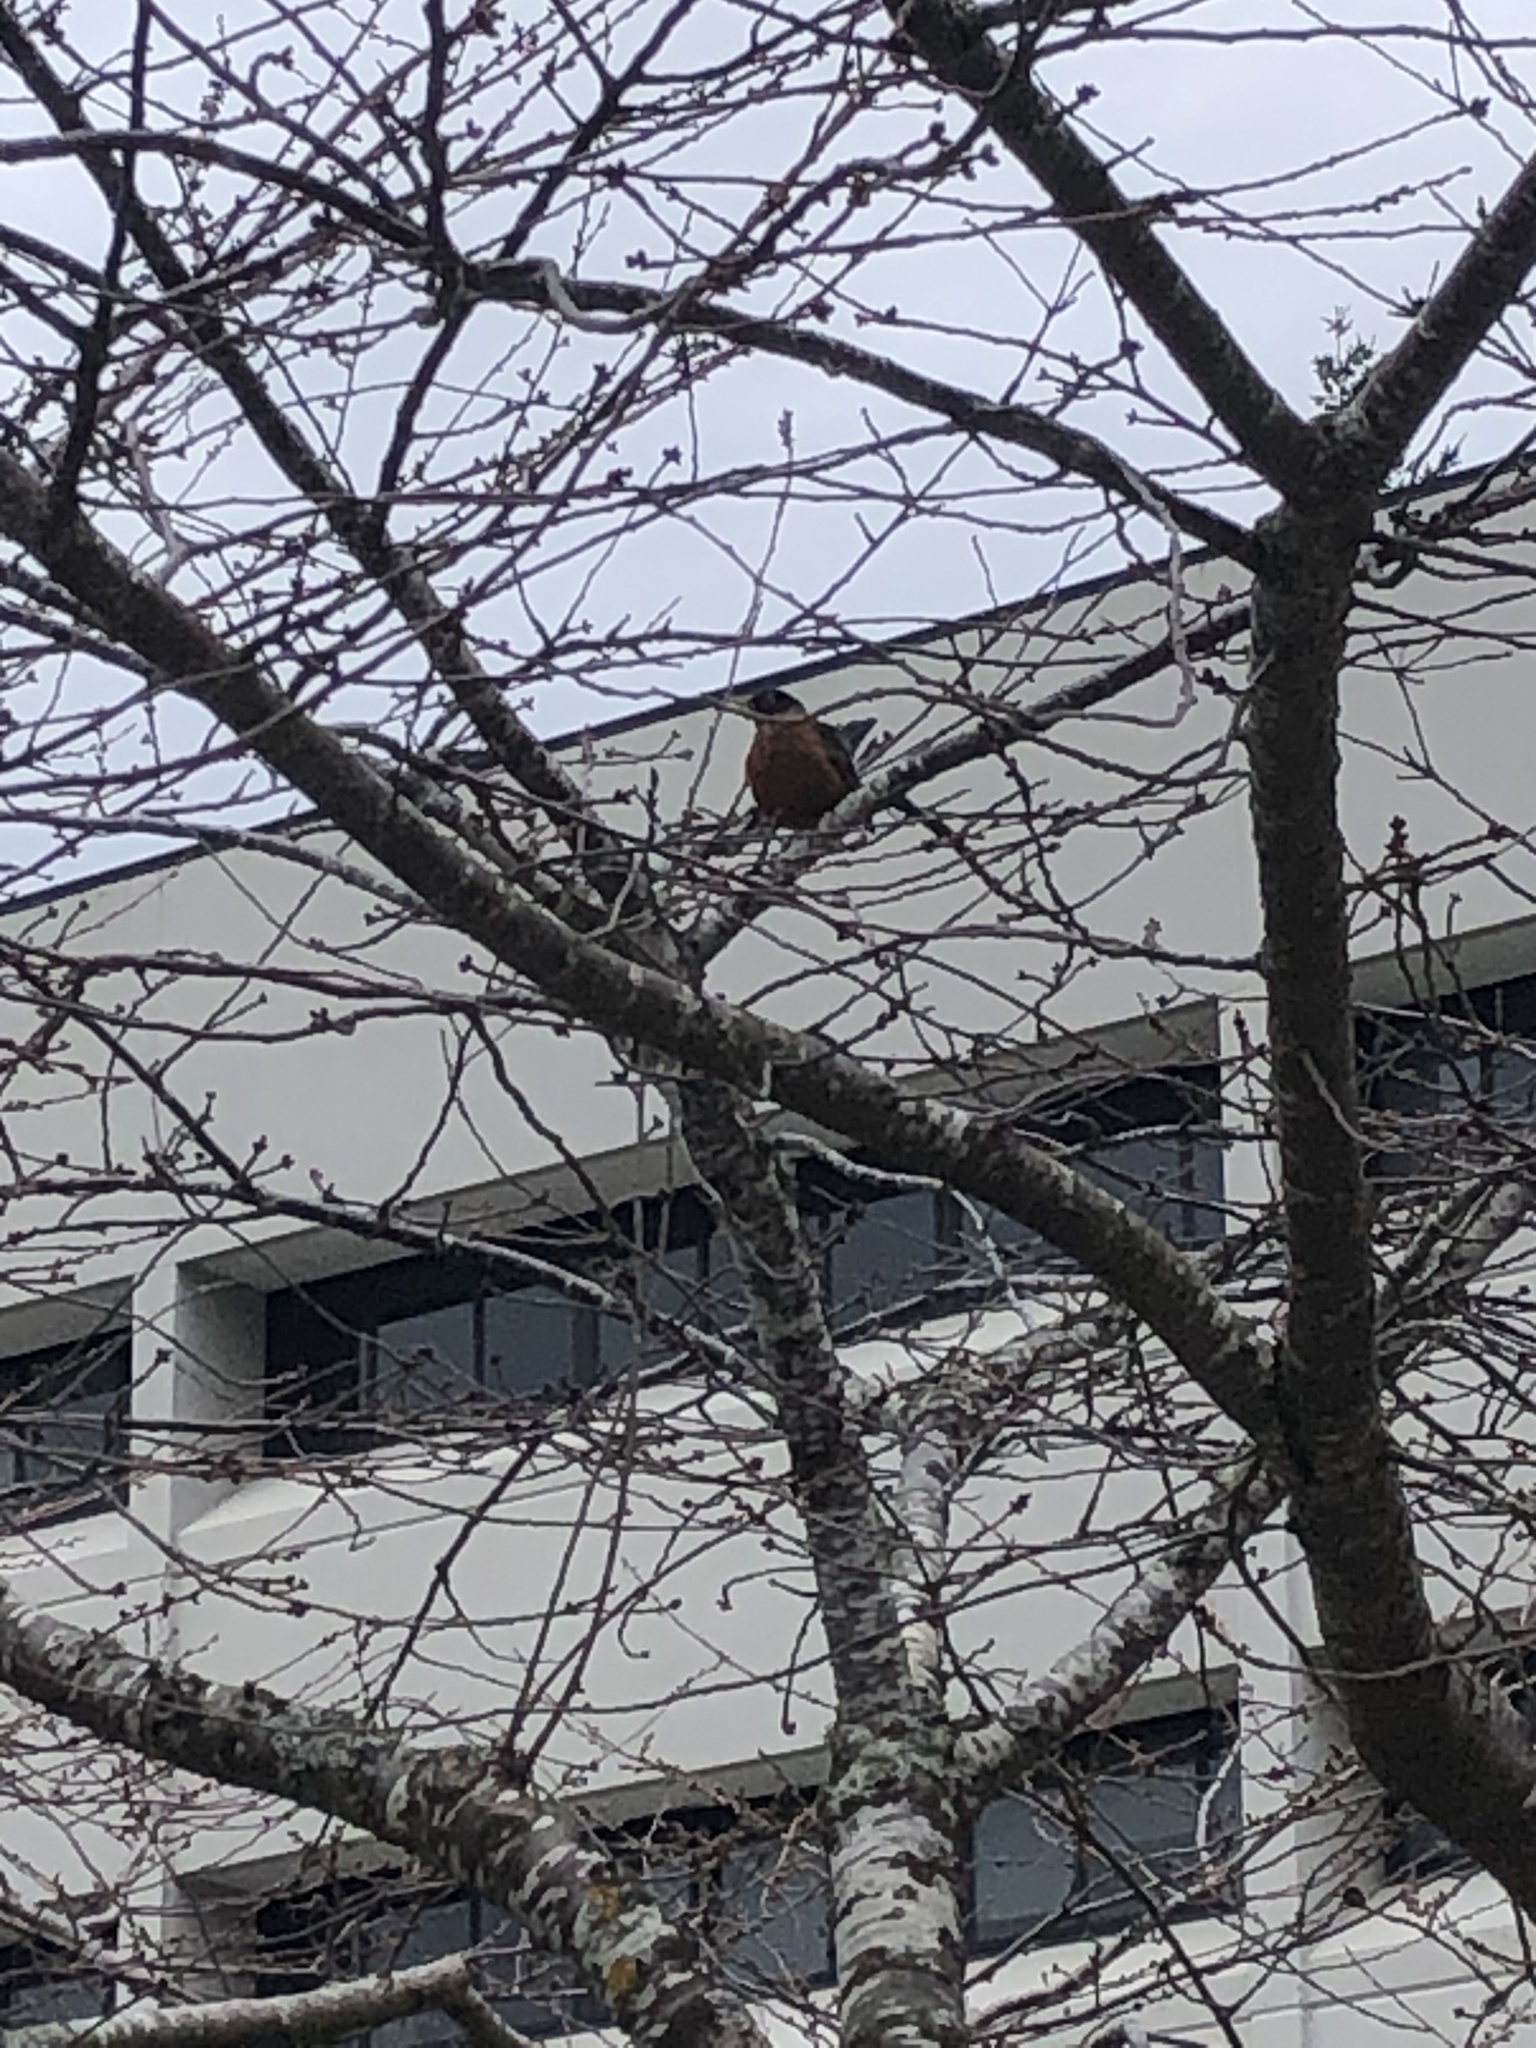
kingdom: Animalia
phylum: Chordata
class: Aves
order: Passeriformes
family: Turdidae
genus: Turdus
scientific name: Turdus migratorius
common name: American robin
